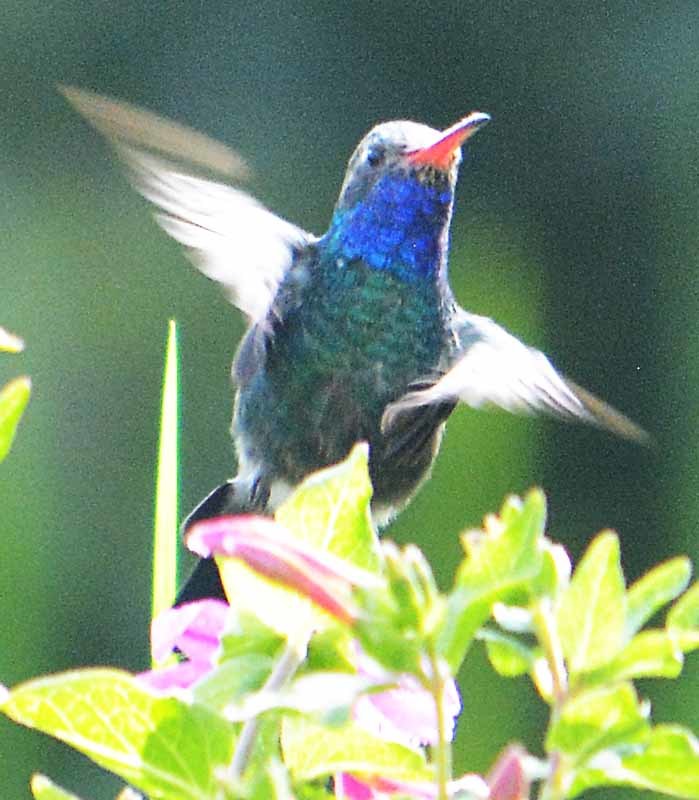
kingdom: Animalia
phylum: Chordata
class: Aves
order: Apodiformes
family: Trochilidae
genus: Cynanthus
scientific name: Cynanthus latirostris
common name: Broad-billed hummingbird
